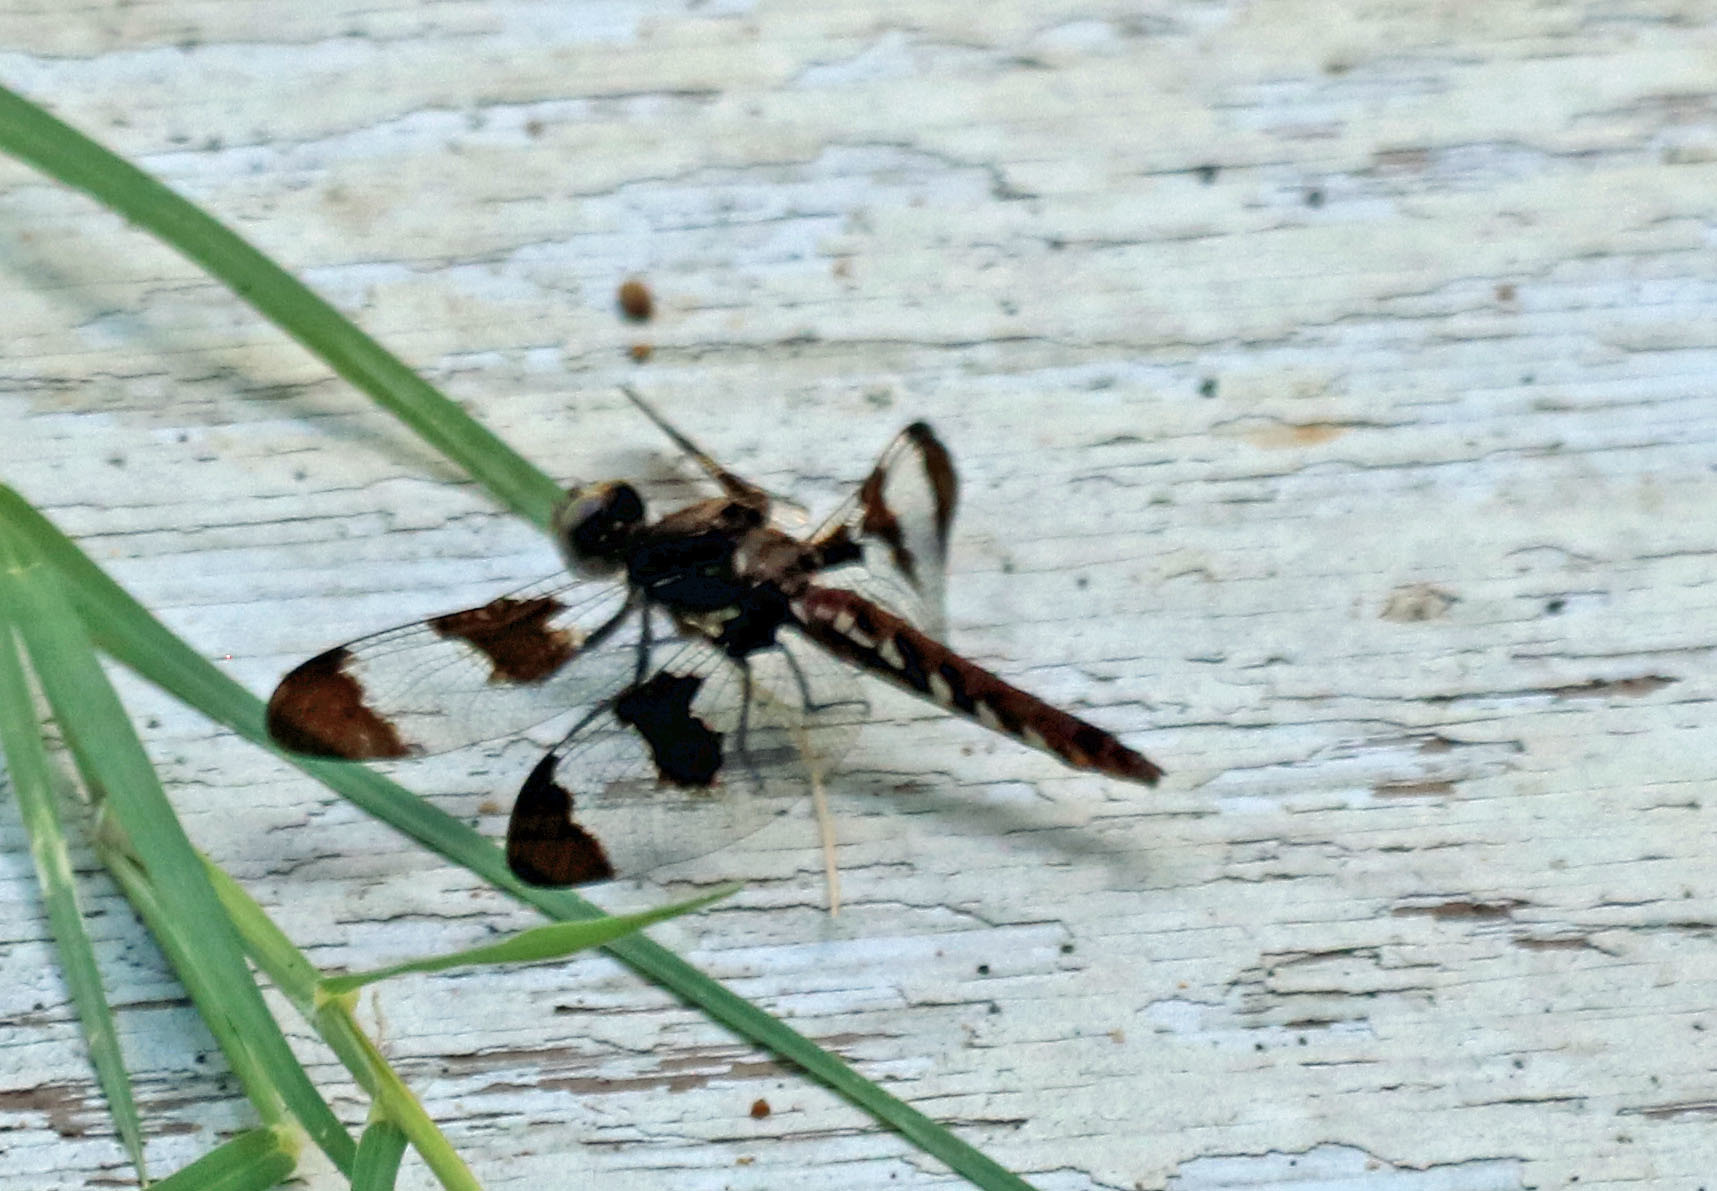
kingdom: Animalia
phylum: Arthropoda
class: Insecta
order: Odonata
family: Libellulidae
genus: Plathemis
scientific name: Plathemis lydia
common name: Common whitetail
